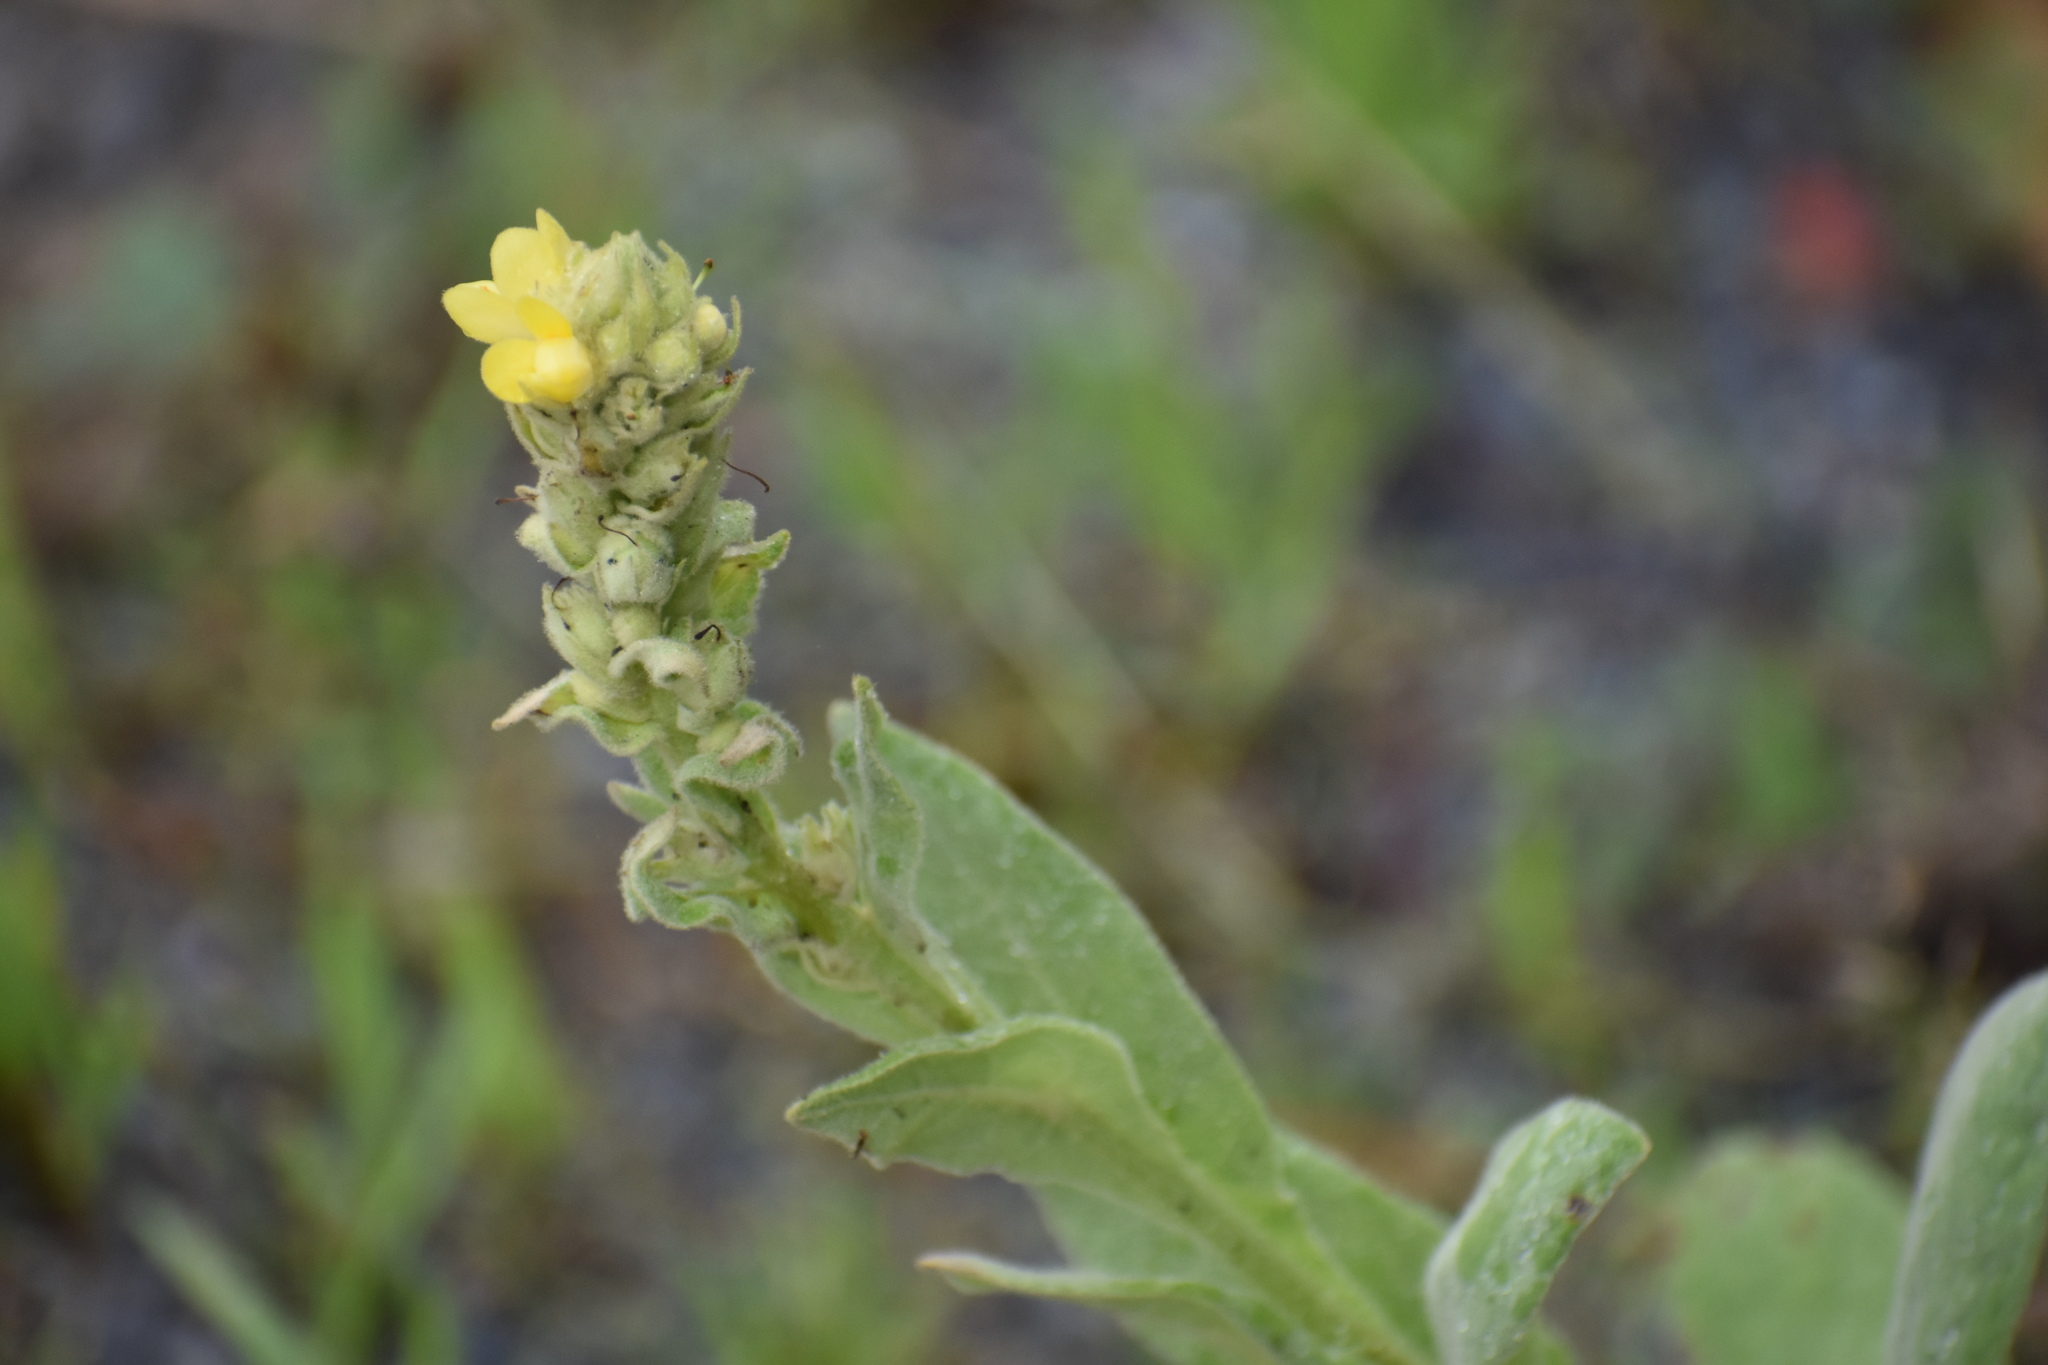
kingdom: Plantae
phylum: Tracheophyta
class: Magnoliopsida
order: Lamiales
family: Scrophulariaceae
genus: Verbascum
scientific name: Verbascum thapsus
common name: Common mullein
